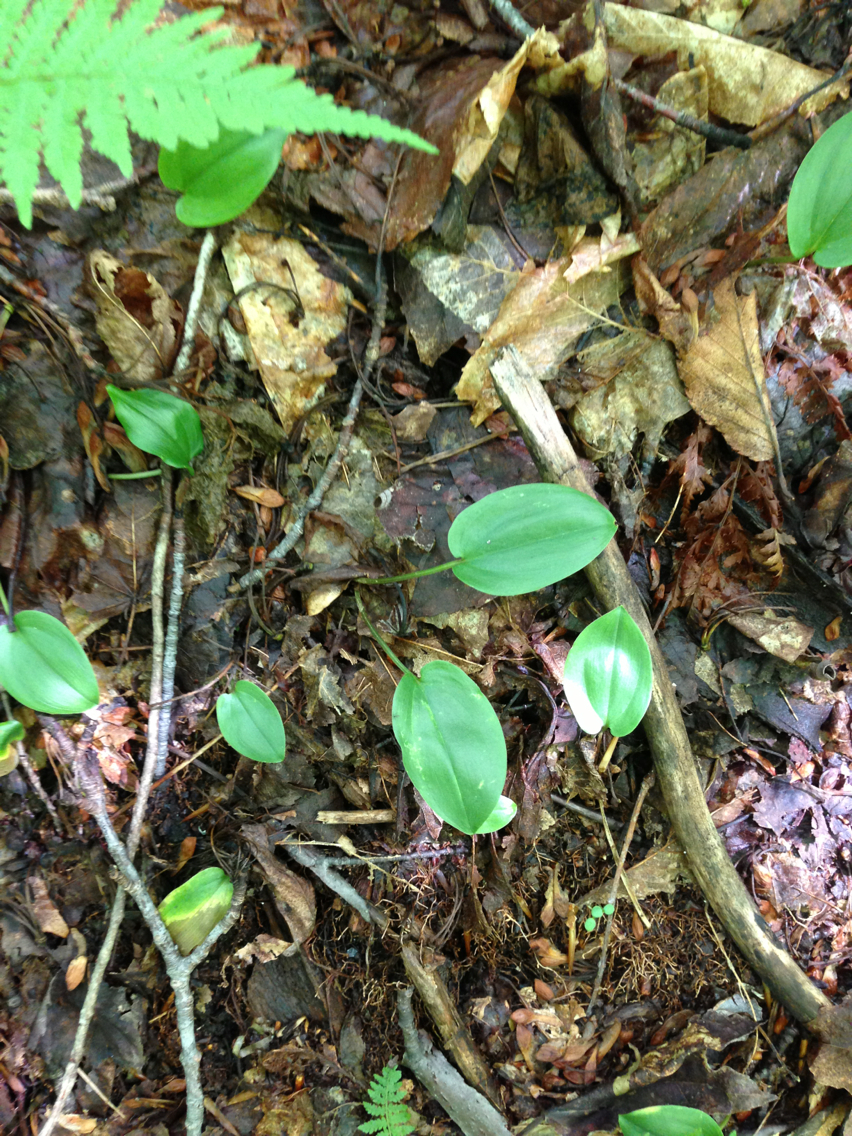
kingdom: Plantae
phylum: Tracheophyta
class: Liliopsida
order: Asparagales
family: Asparagaceae
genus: Maianthemum
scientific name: Maianthemum canadense
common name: False lily-of-the-valley
